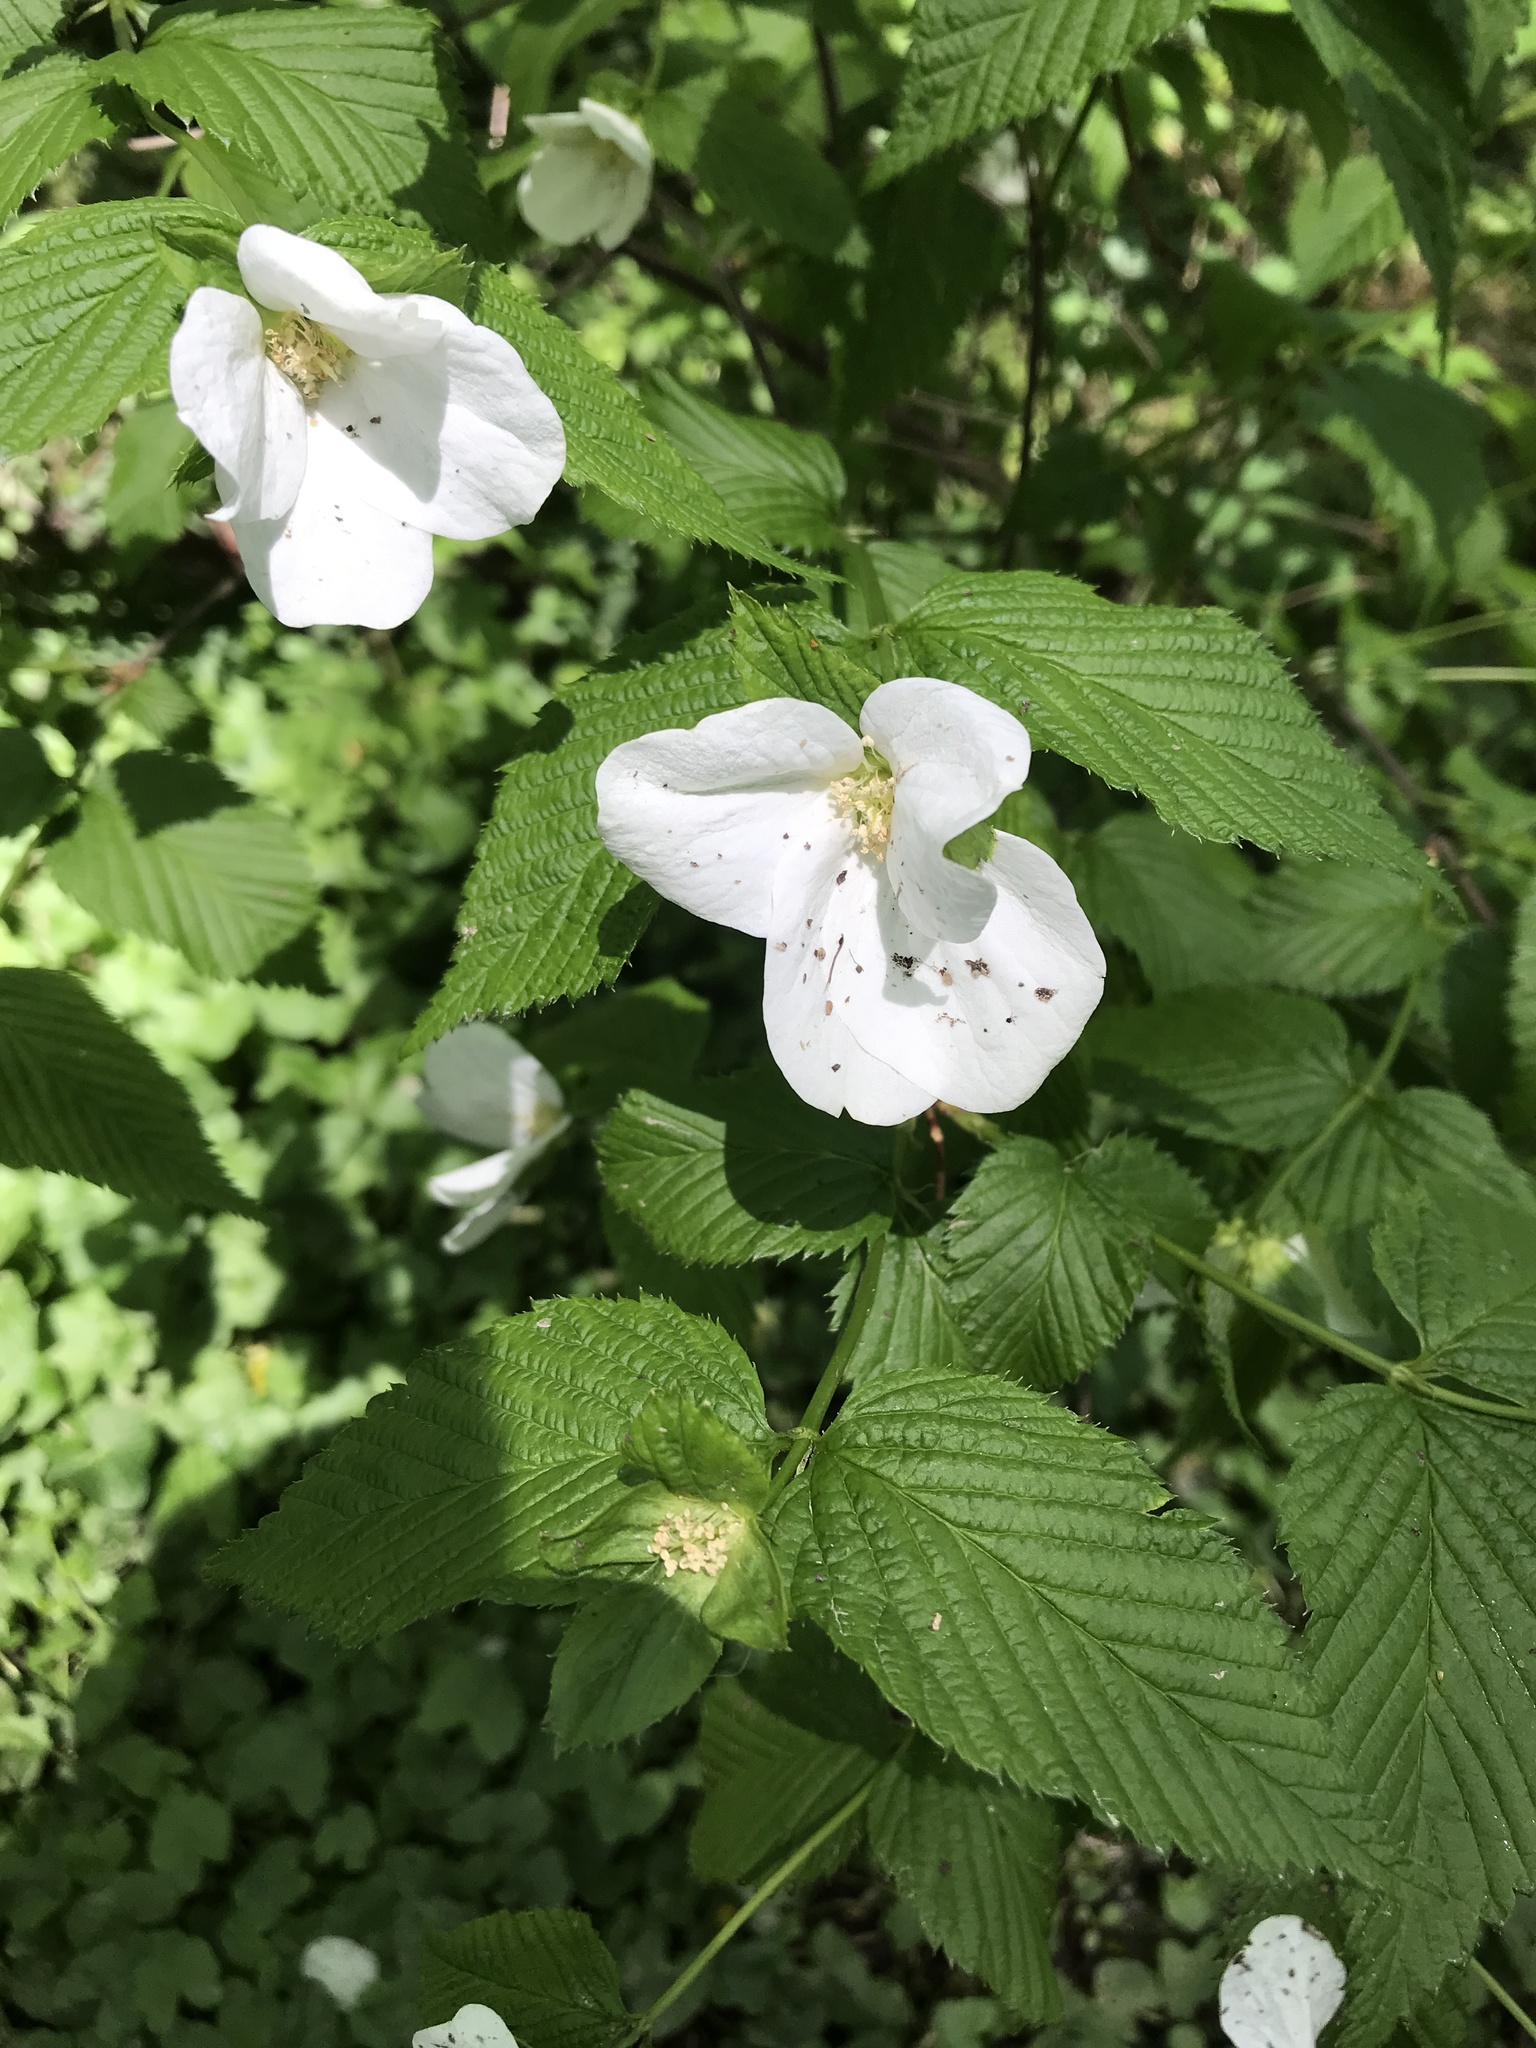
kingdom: Plantae
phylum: Tracheophyta
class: Magnoliopsida
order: Rosales
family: Rosaceae
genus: Rhodotypos
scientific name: Rhodotypos scandens
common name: Jetbead
